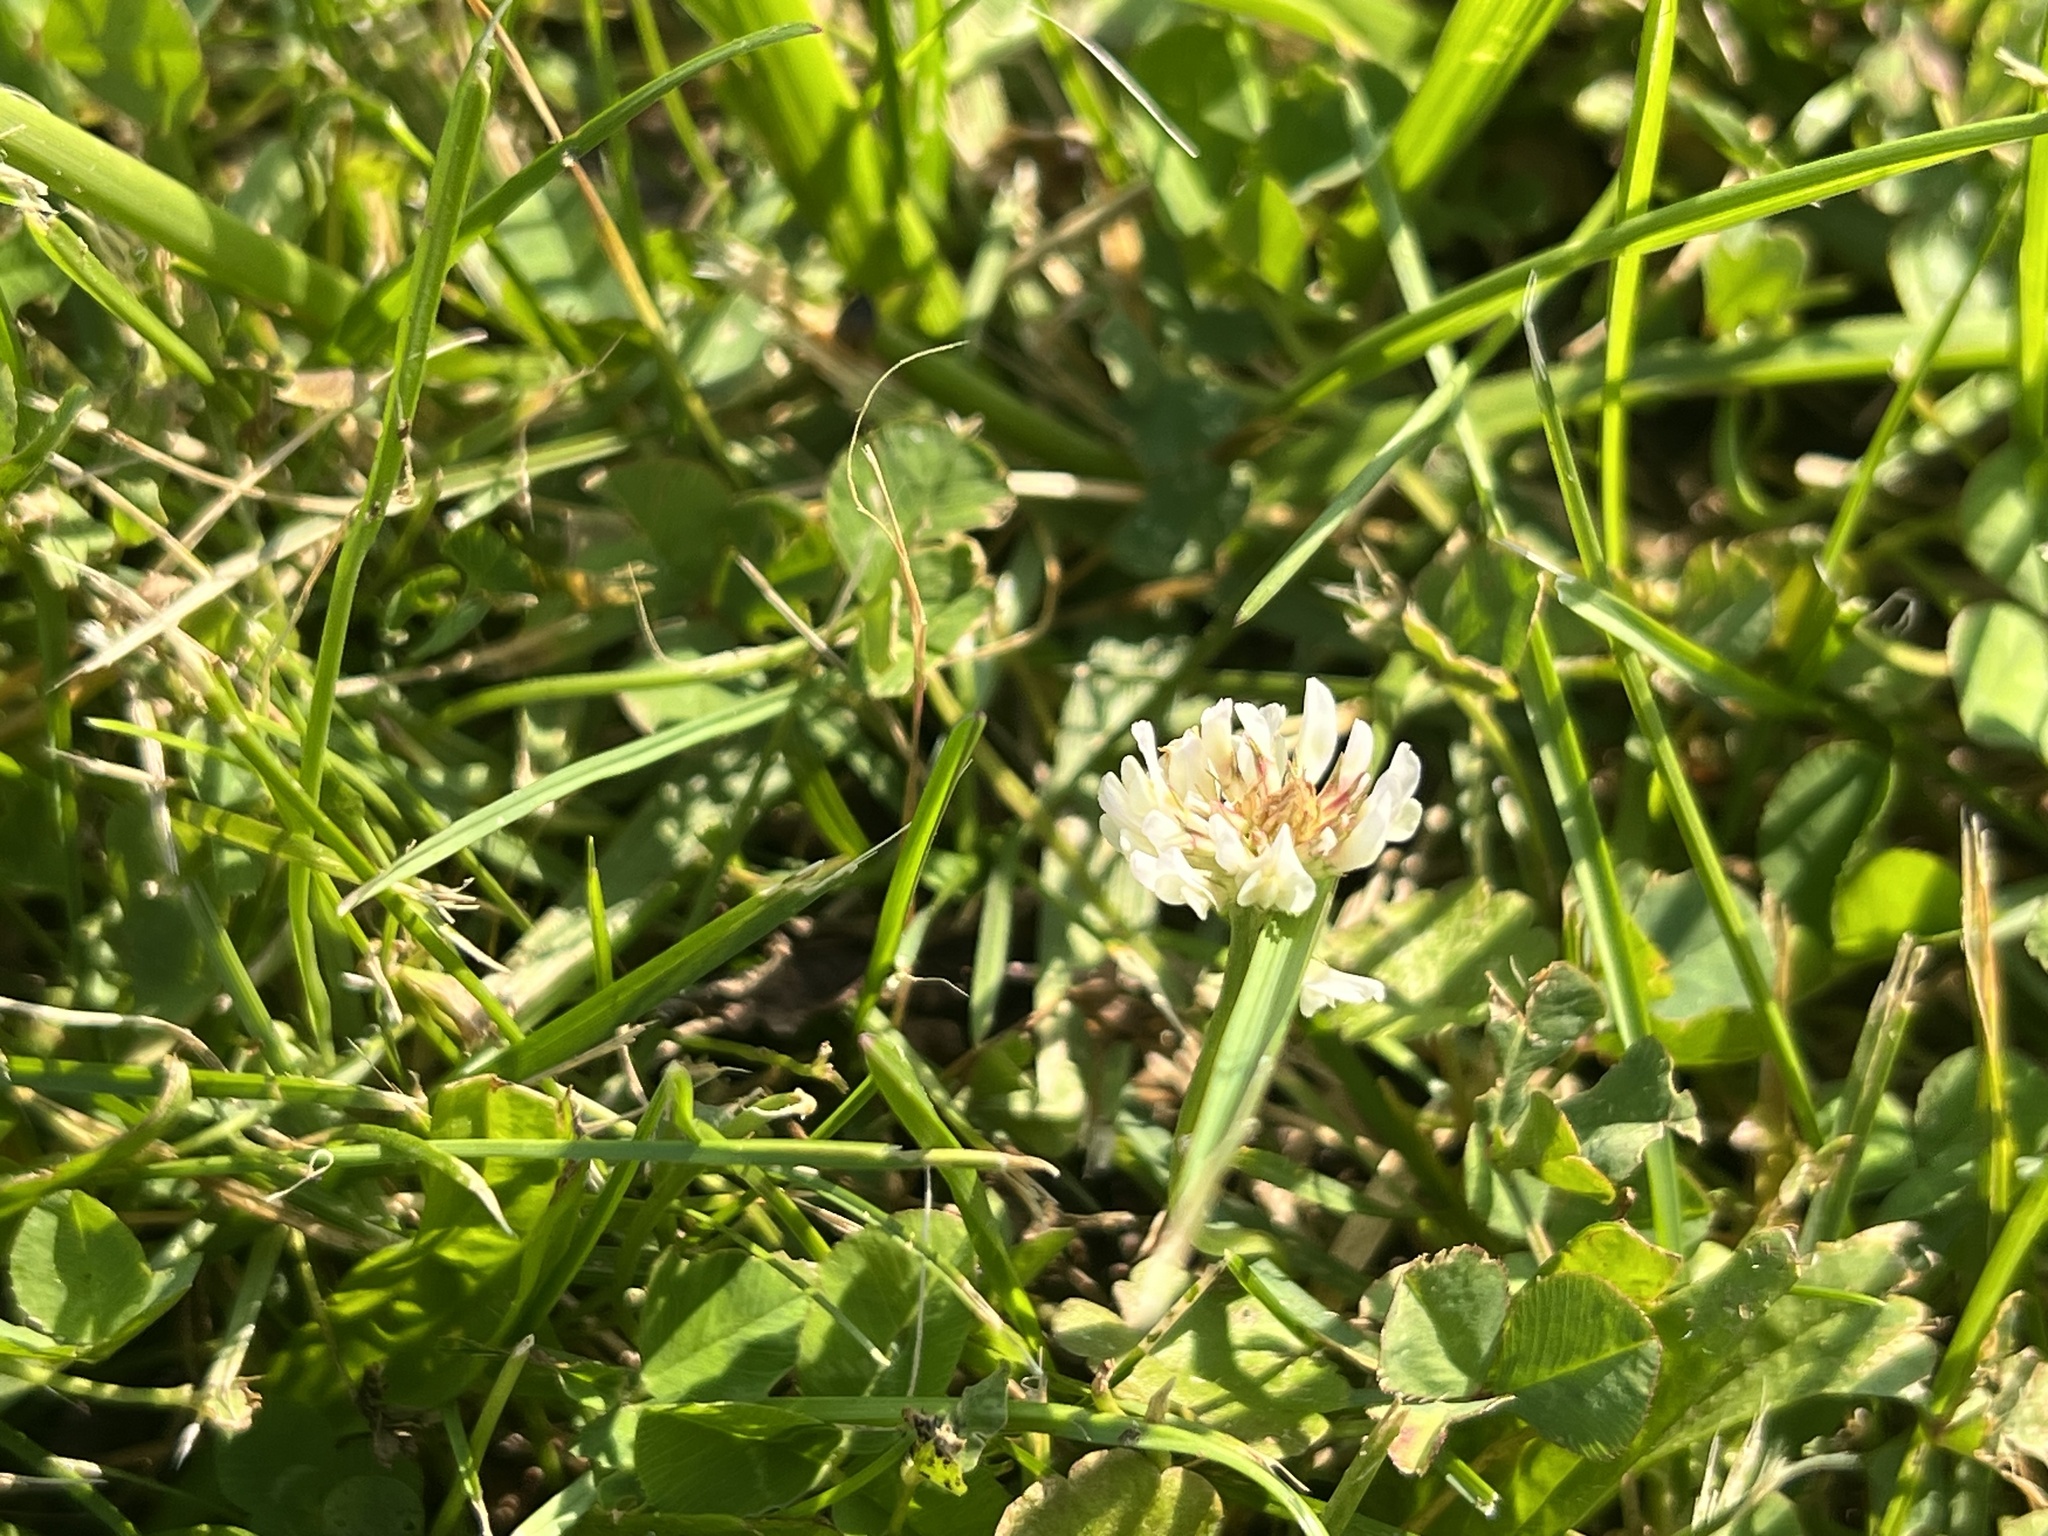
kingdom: Plantae
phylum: Tracheophyta
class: Magnoliopsida
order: Fabales
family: Fabaceae
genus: Trifolium
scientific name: Trifolium repens
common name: White clover
